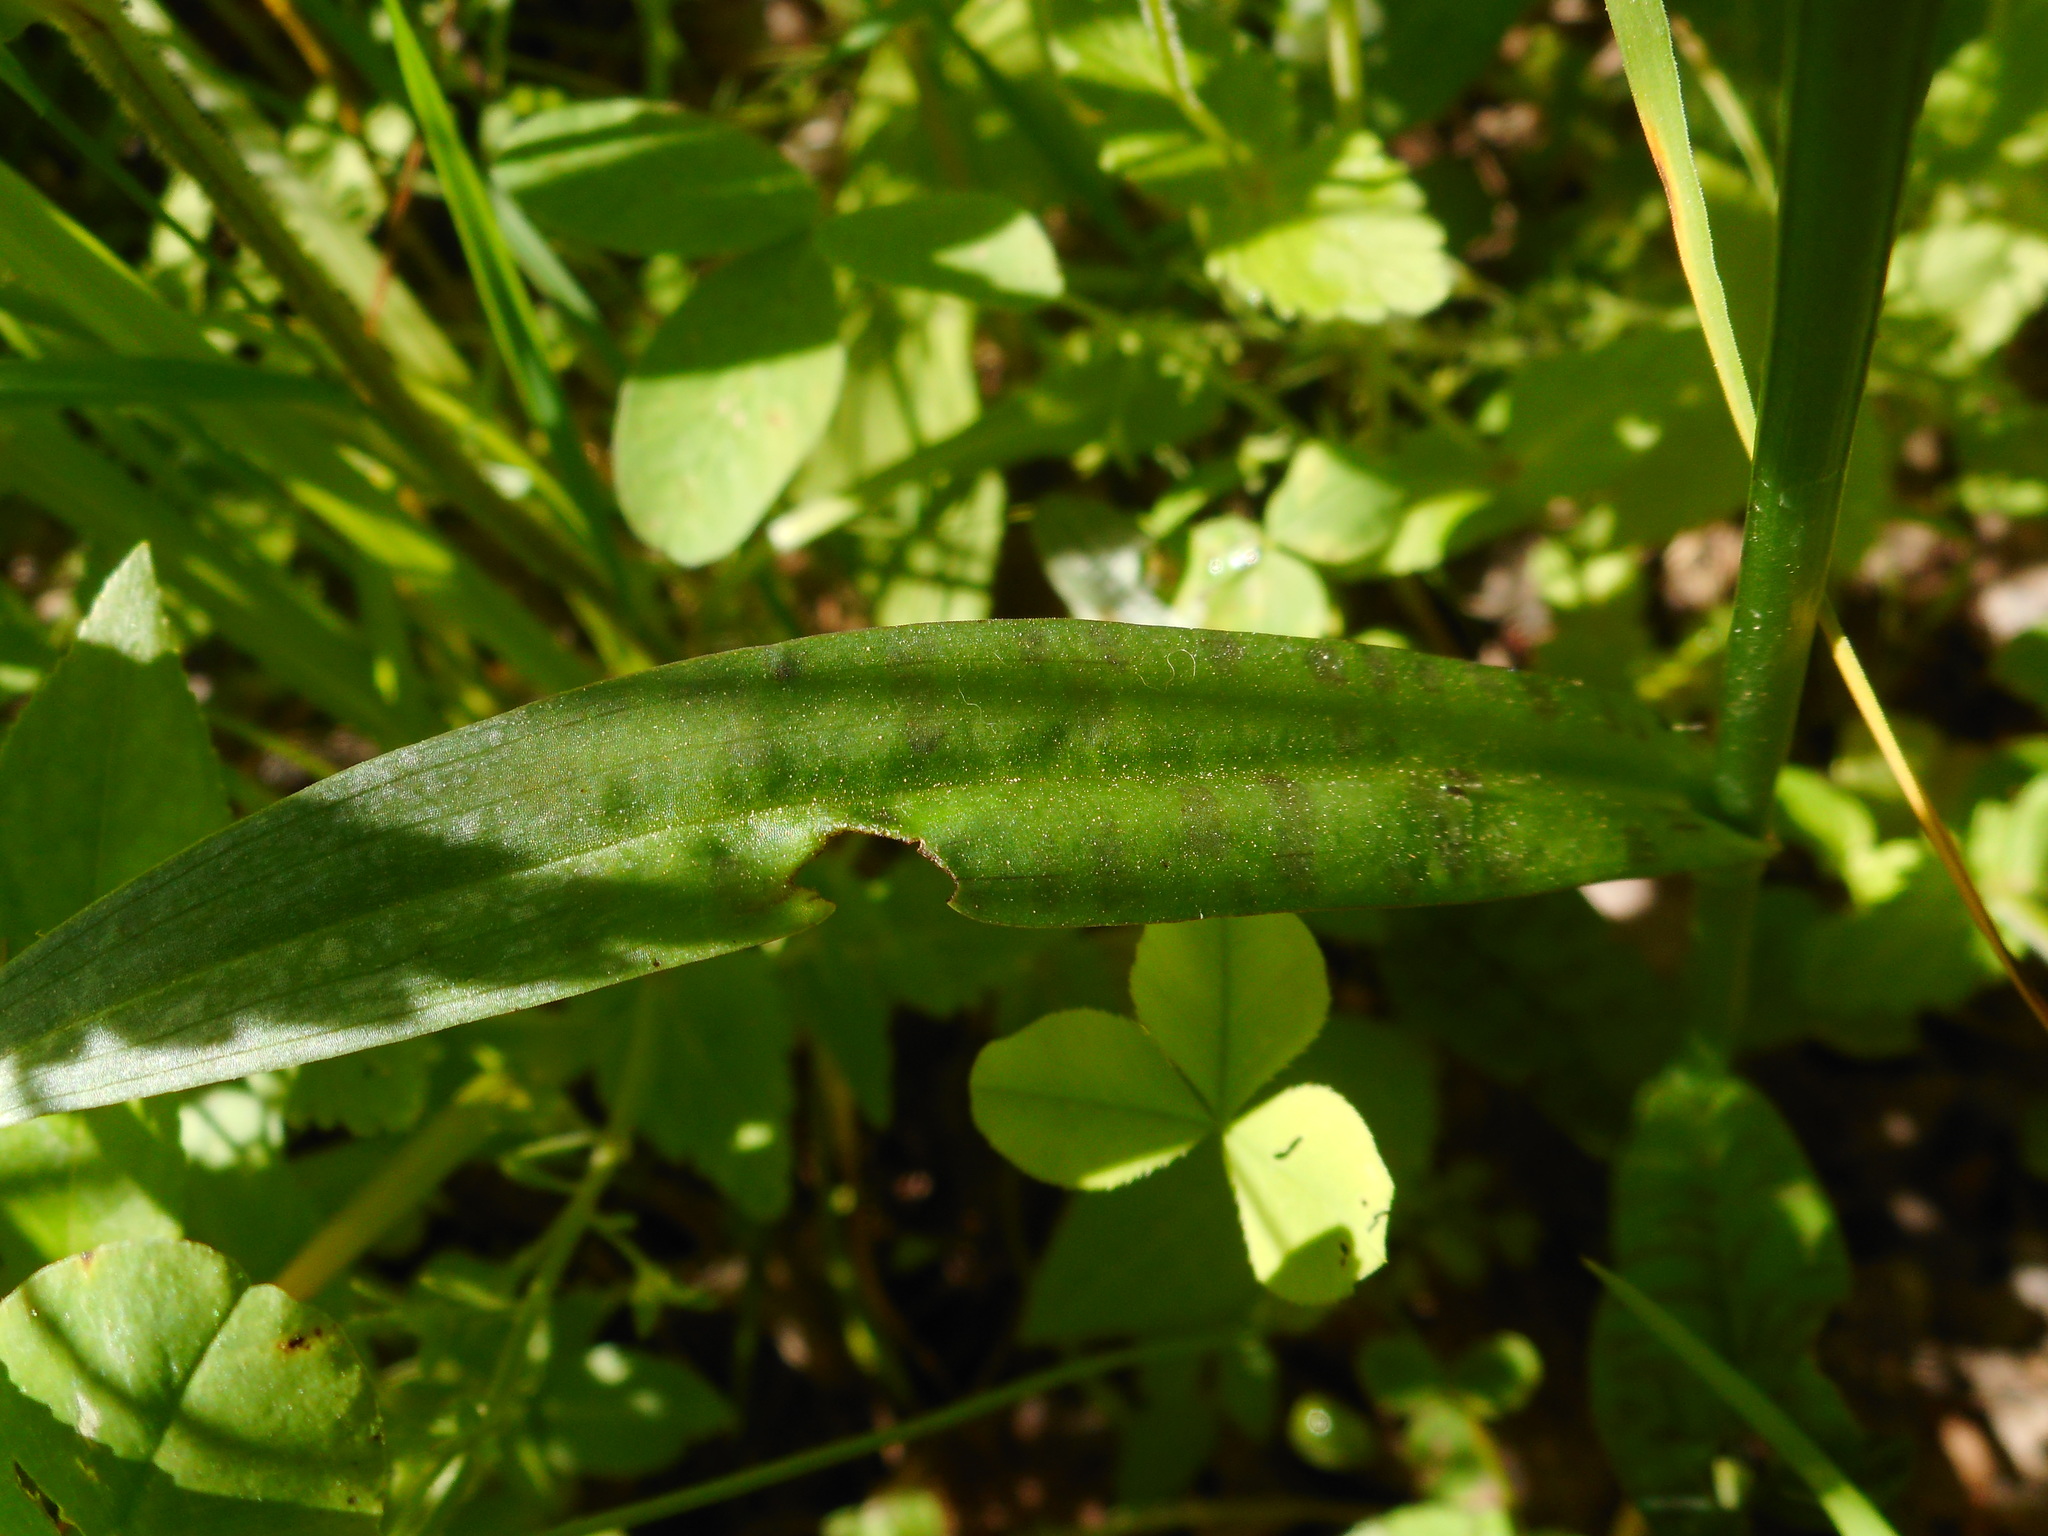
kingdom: Plantae
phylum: Tracheophyta
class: Liliopsida
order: Asparagales
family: Orchidaceae
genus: Dactylorhiza
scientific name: Dactylorhiza maculata
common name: Heath spotted-orchid
